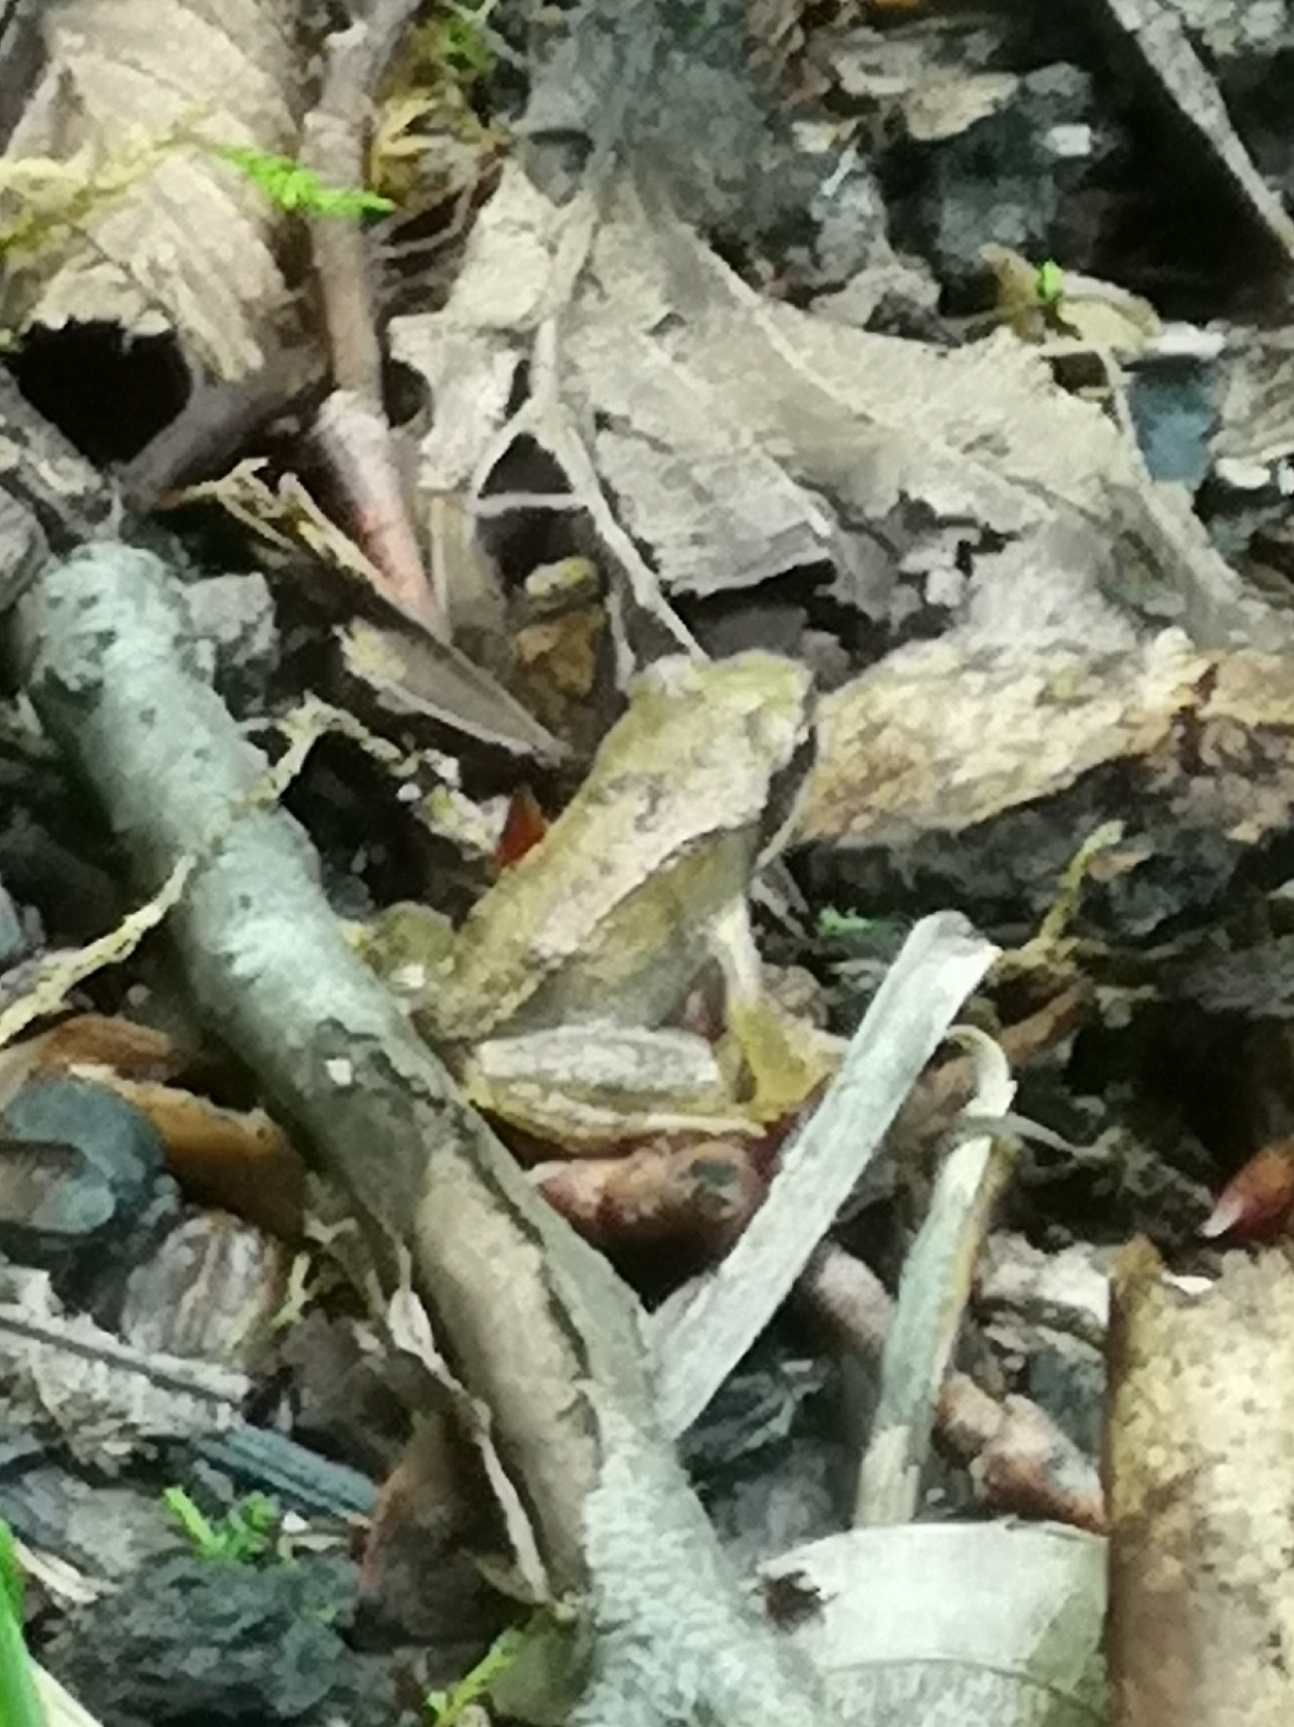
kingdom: Animalia
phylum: Chordata
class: Amphibia
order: Anura
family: Ranidae
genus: Rana
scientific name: Rana temporaria
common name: Common frog
